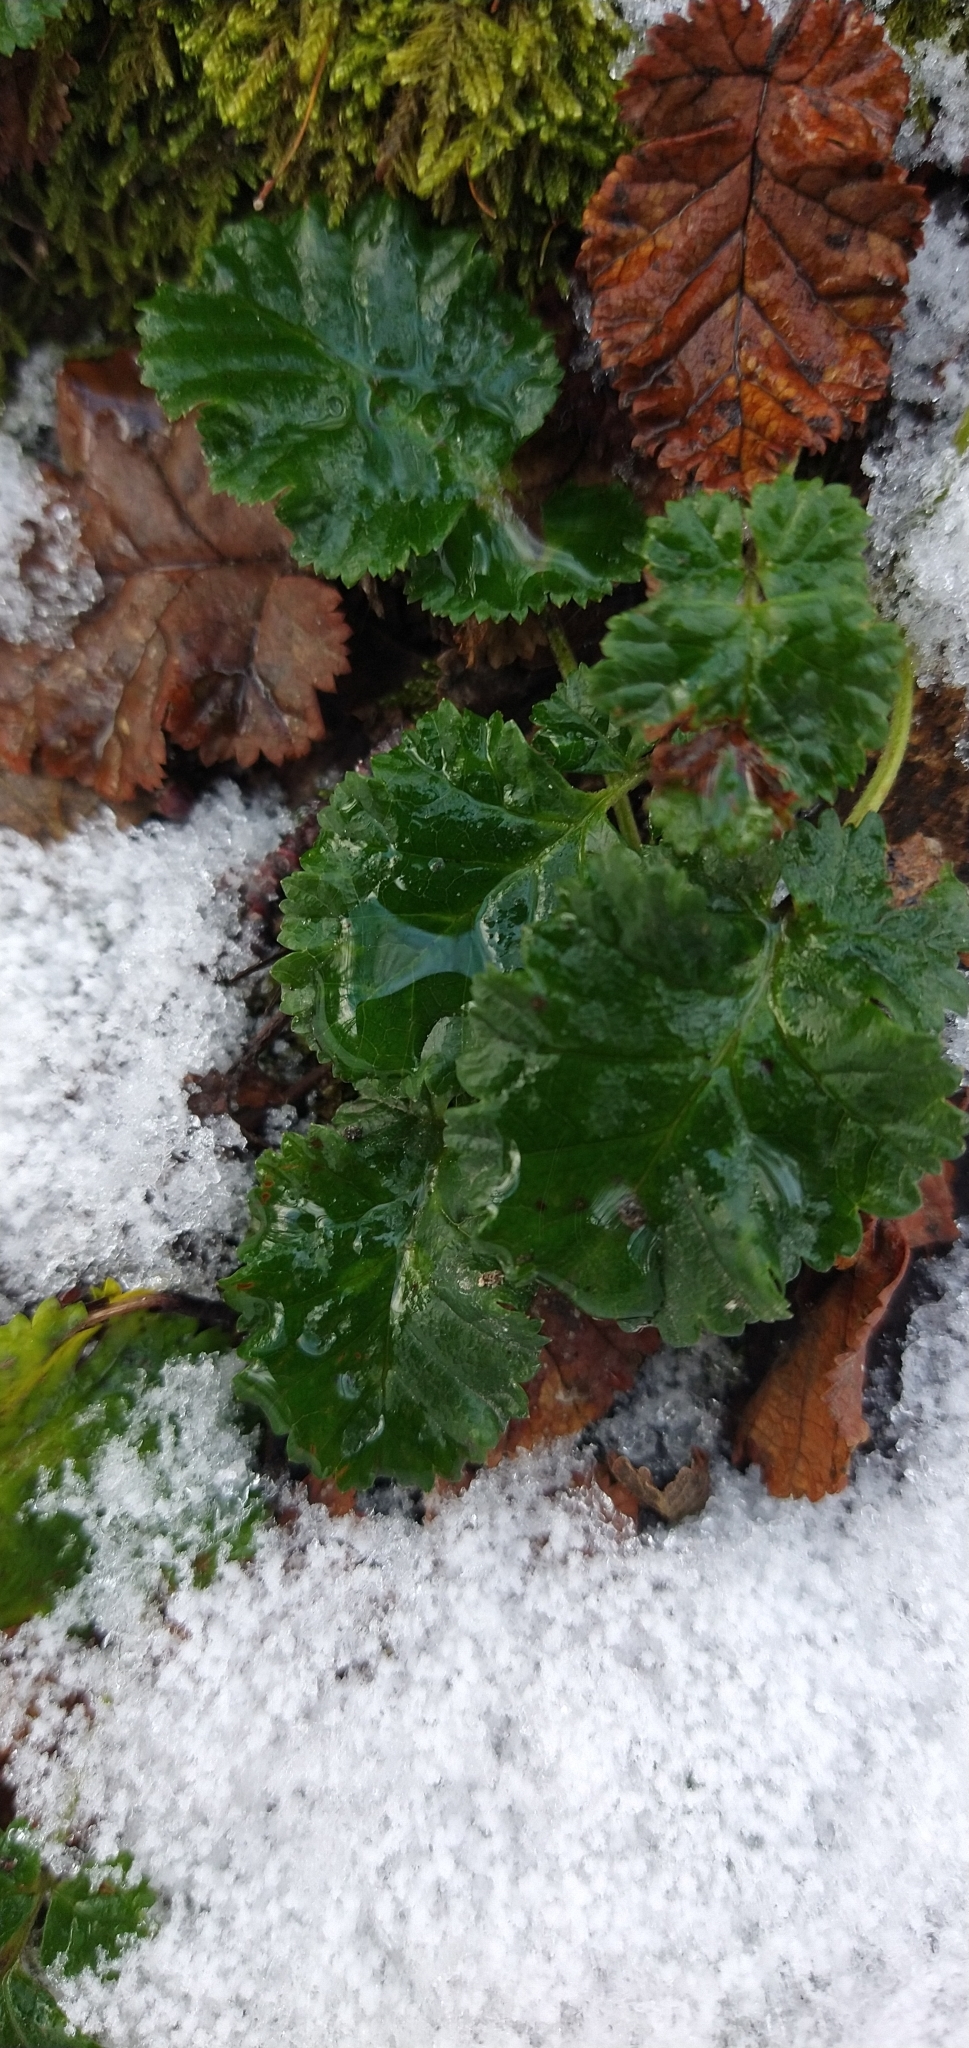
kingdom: Plantae
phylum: Tracheophyta
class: Magnoliopsida
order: Rosales
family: Rosaceae
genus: Rubus
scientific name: Rubus geoides
